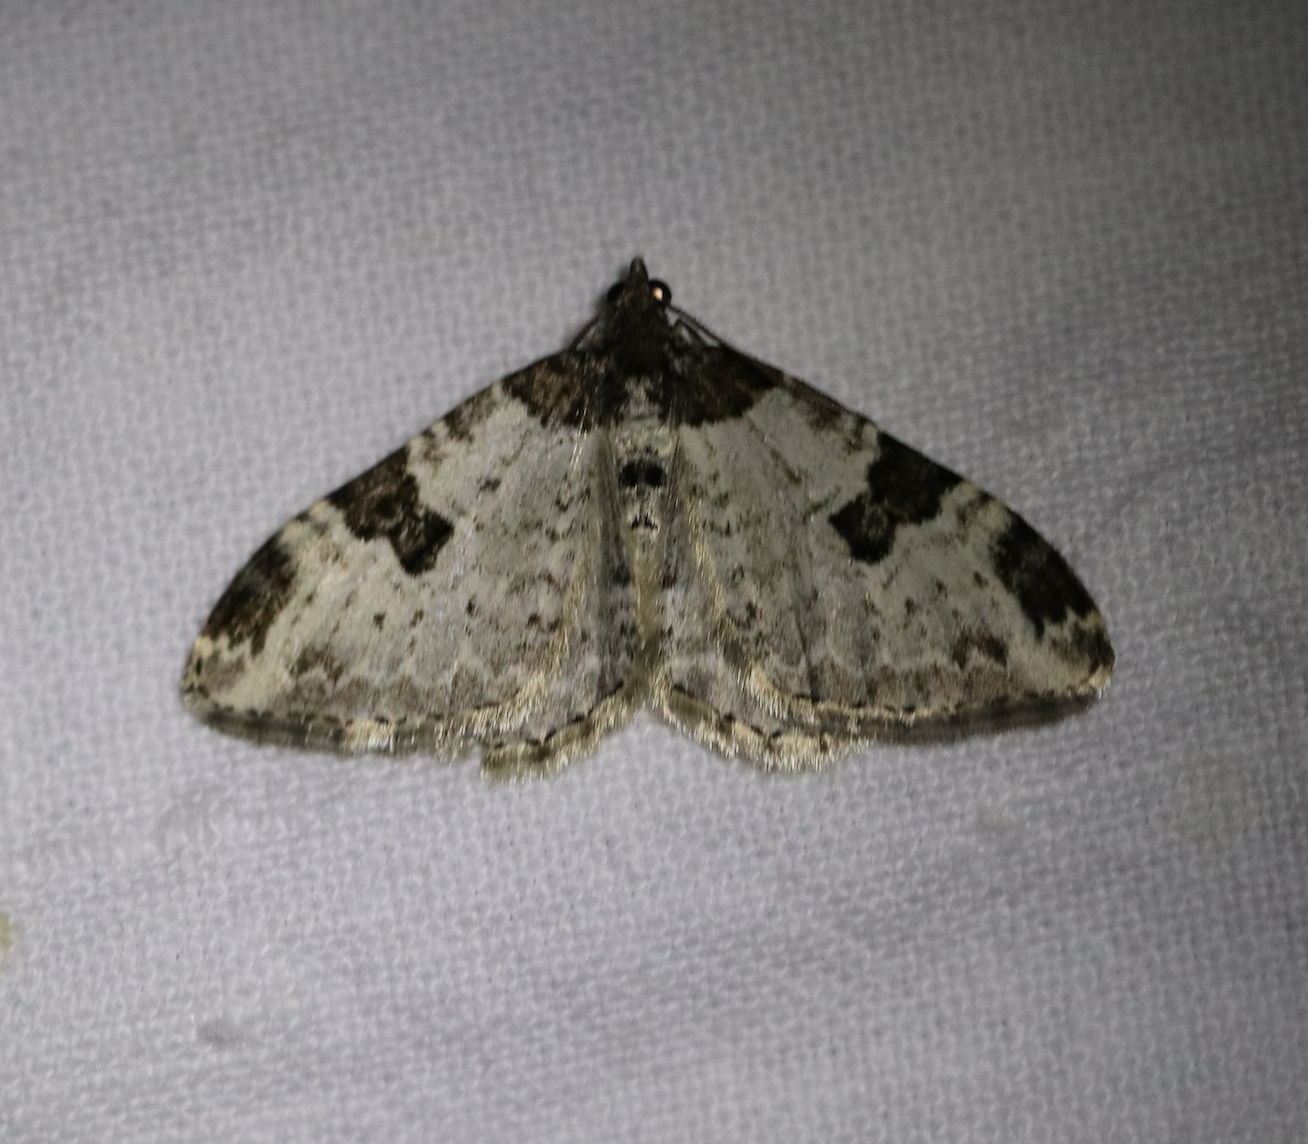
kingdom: Animalia
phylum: Arthropoda
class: Insecta
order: Lepidoptera
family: Geometridae
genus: Xanthorhoe
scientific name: Xanthorhoe fluctuata
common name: Garden carpet
